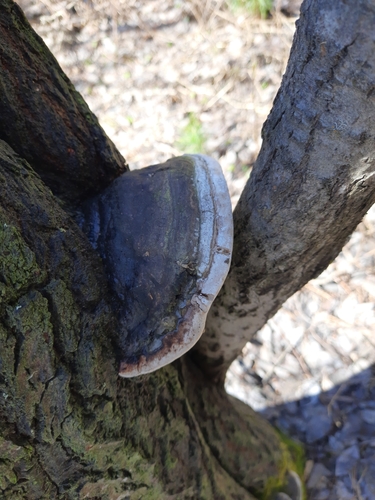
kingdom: Fungi
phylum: Basidiomycota
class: Agaricomycetes
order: Hymenochaetales
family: Hymenochaetaceae
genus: Phellinus
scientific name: Phellinus igniarius
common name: Willow bracket
